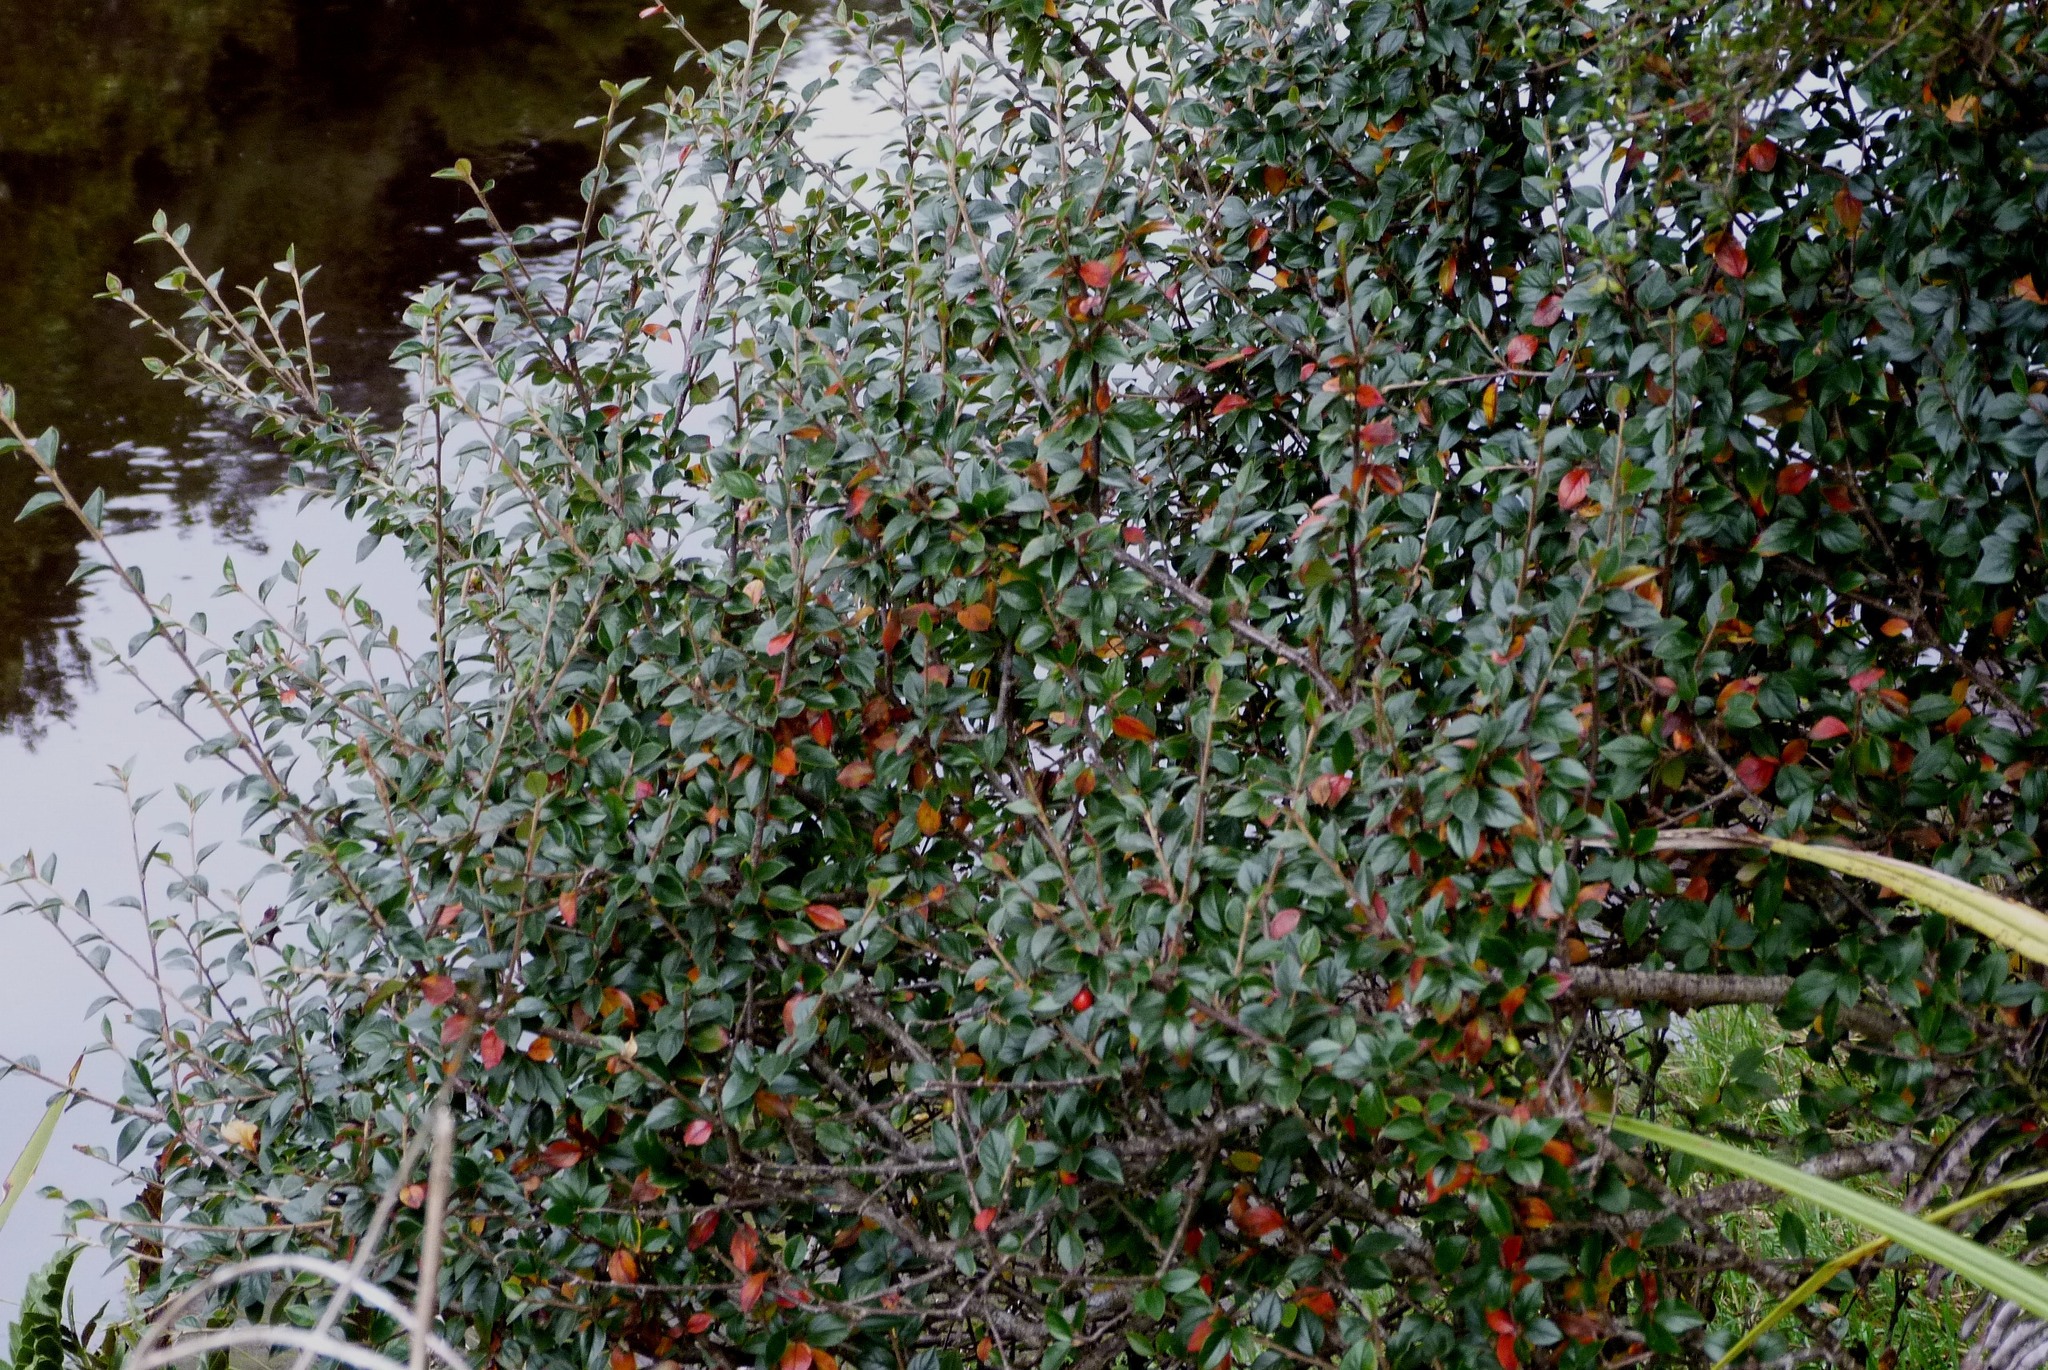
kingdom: Plantae
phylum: Tracheophyta
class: Magnoliopsida
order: Rosales
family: Rosaceae
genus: Cotoneaster
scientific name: Cotoneaster simonsii
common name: Himalayan cotoneaster
